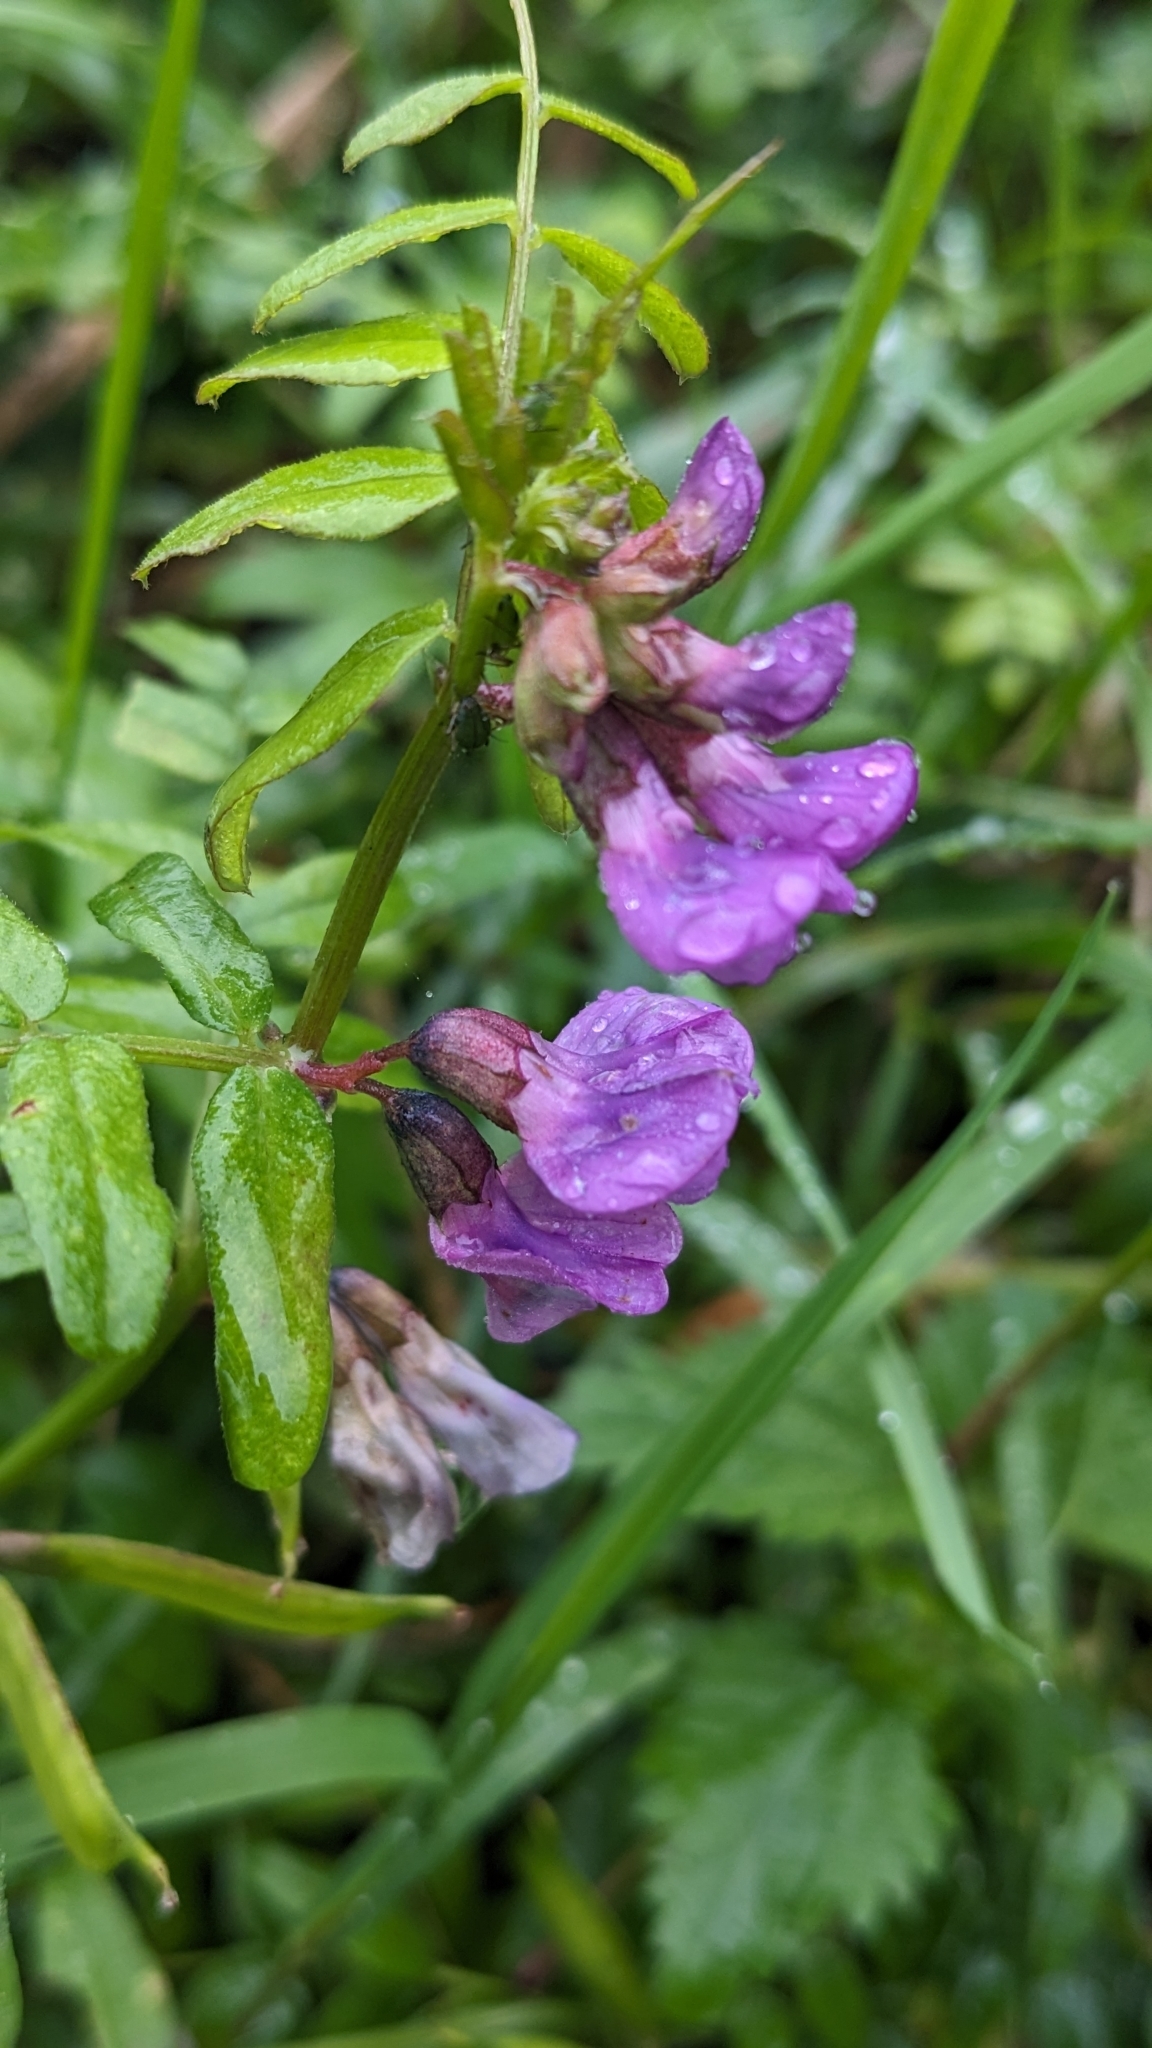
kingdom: Plantae
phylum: Tracheophyta
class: Magnoliopsida
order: Fabales
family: Fabaceae
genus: Vicia
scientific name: Vicia sepium
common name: Bush vetch
